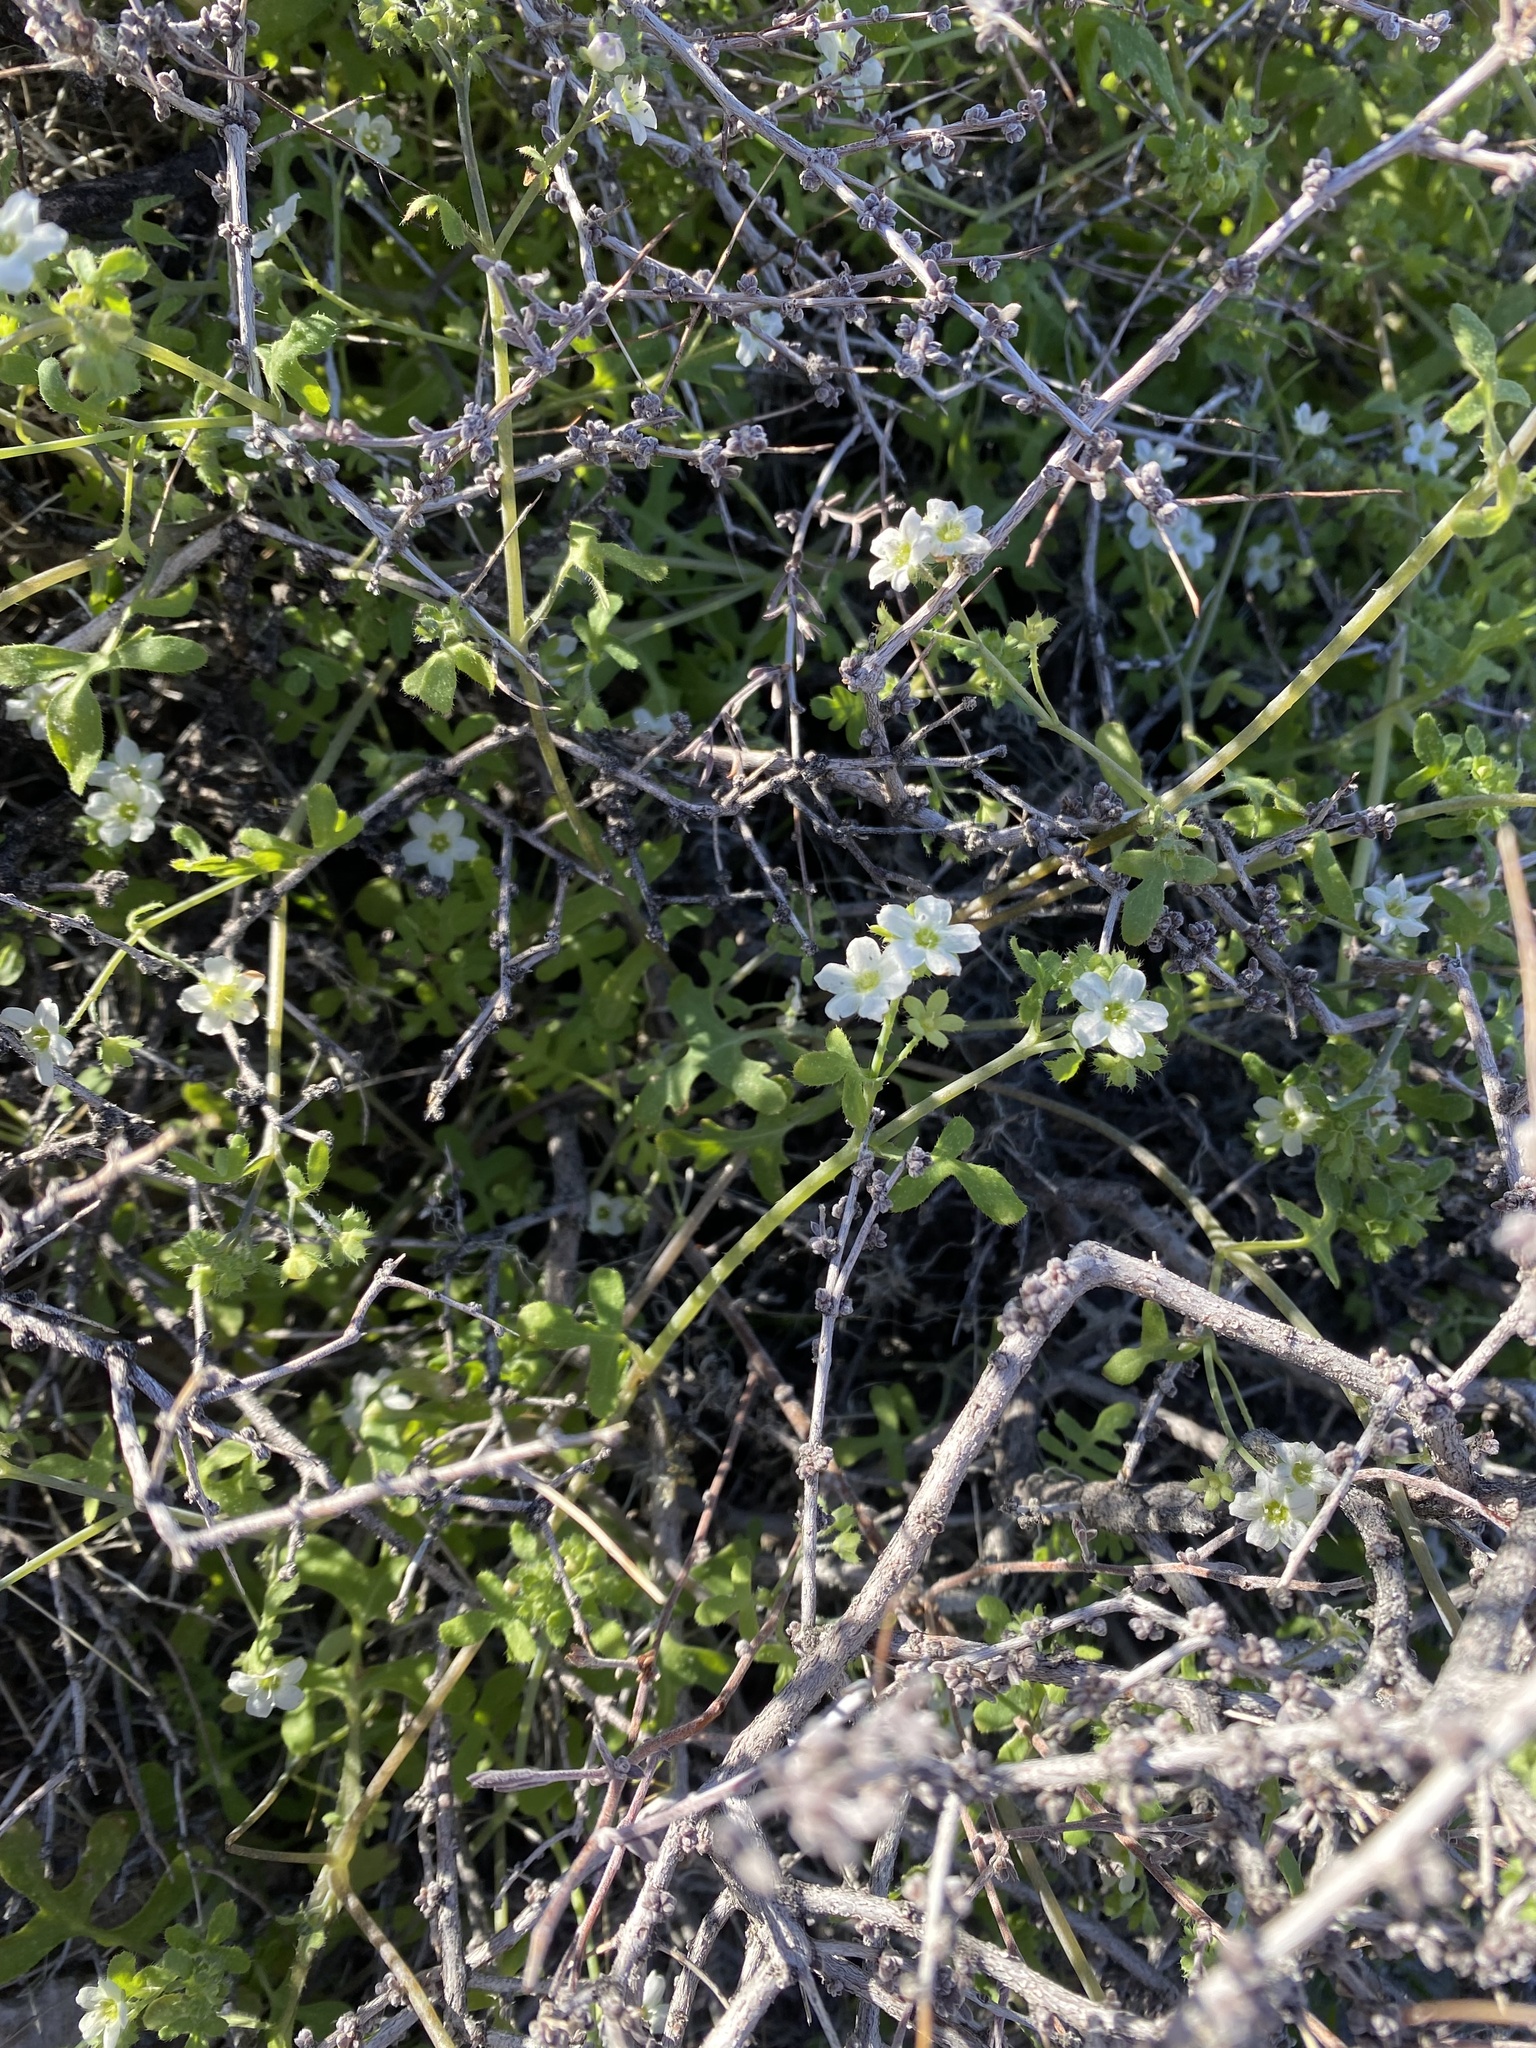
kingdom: Plantae
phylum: Tracheophyta
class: Magnoliopsida
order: Boraginales
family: Hydrophyllaceae
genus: Pholistoma
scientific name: Pholistoma membranaceum
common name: White fiesta-flower
